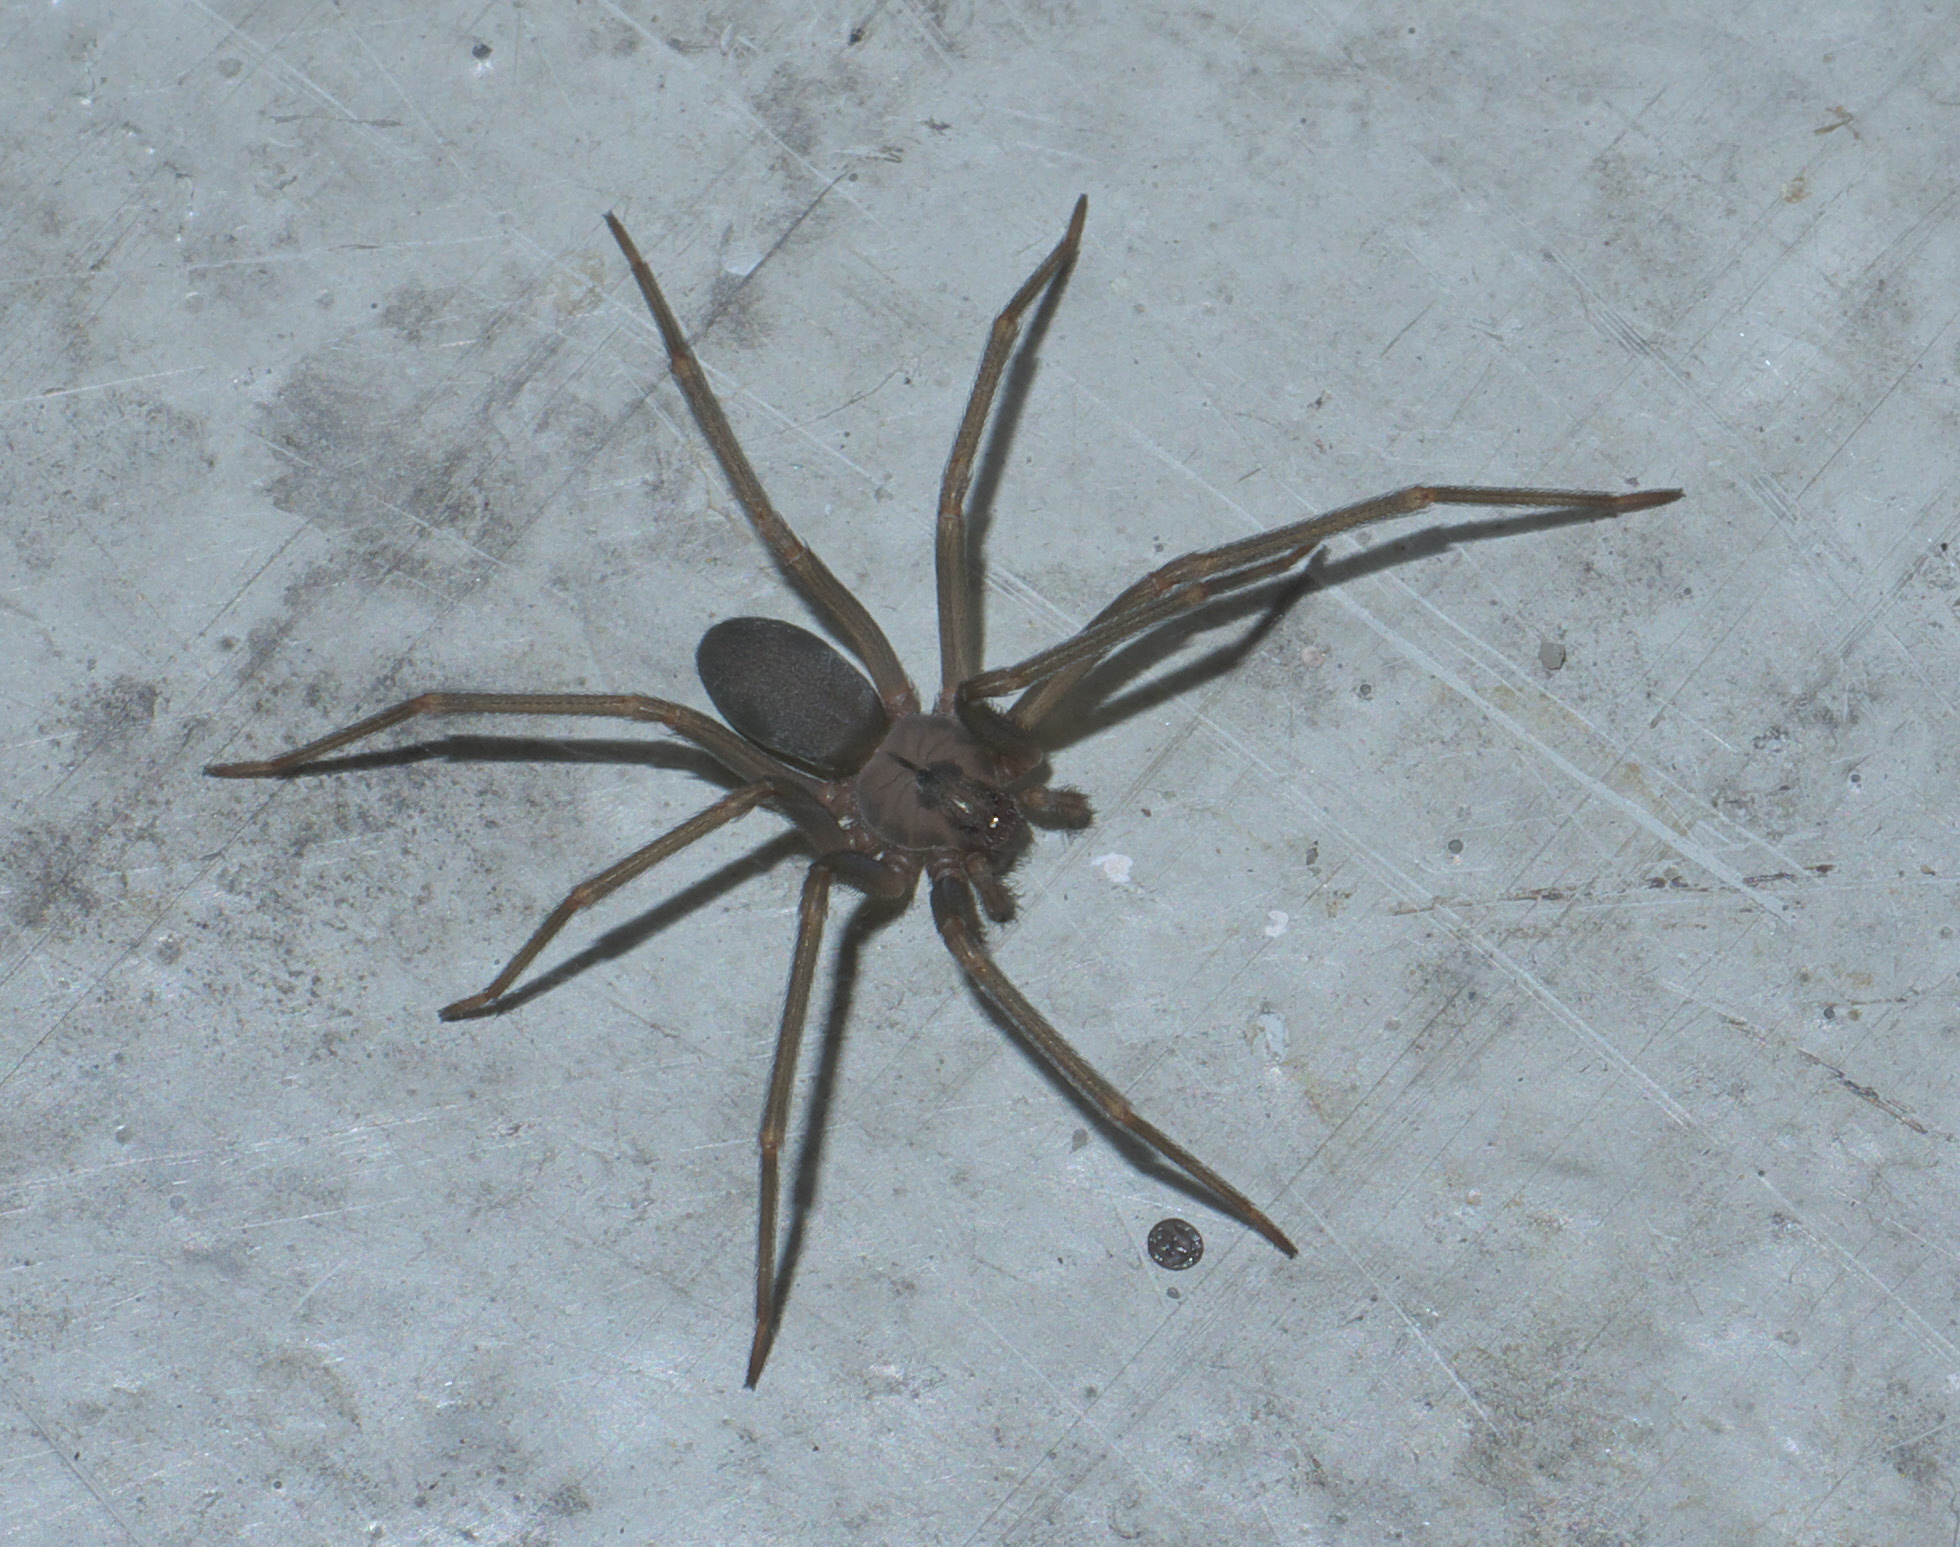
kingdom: Animalia
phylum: Arthropoda
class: Arachnida
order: Araneae
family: Sicariidae
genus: Loxosceles
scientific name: Loxosceles reclusa
